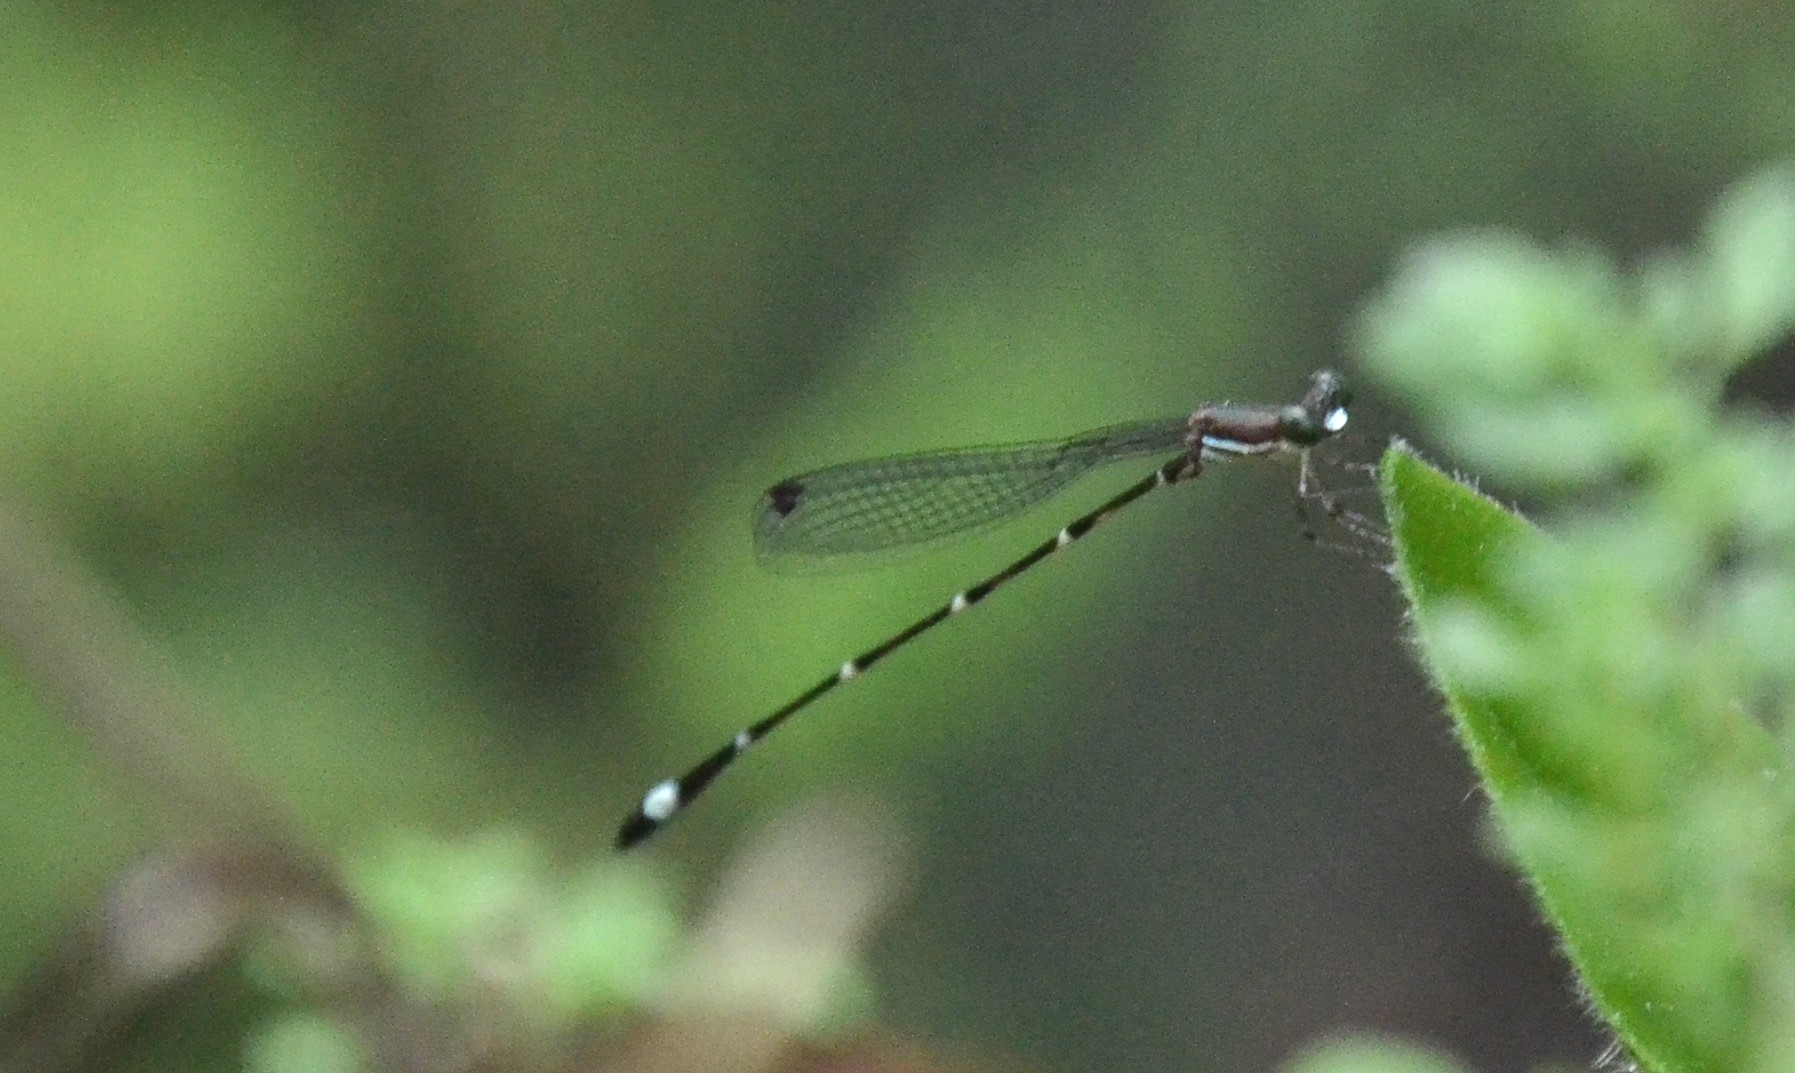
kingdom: Animalia
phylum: Arthropoda
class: Insecta
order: Odonata
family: Platystictidae
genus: Protosticta
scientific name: Protosticta sanguinostigma
